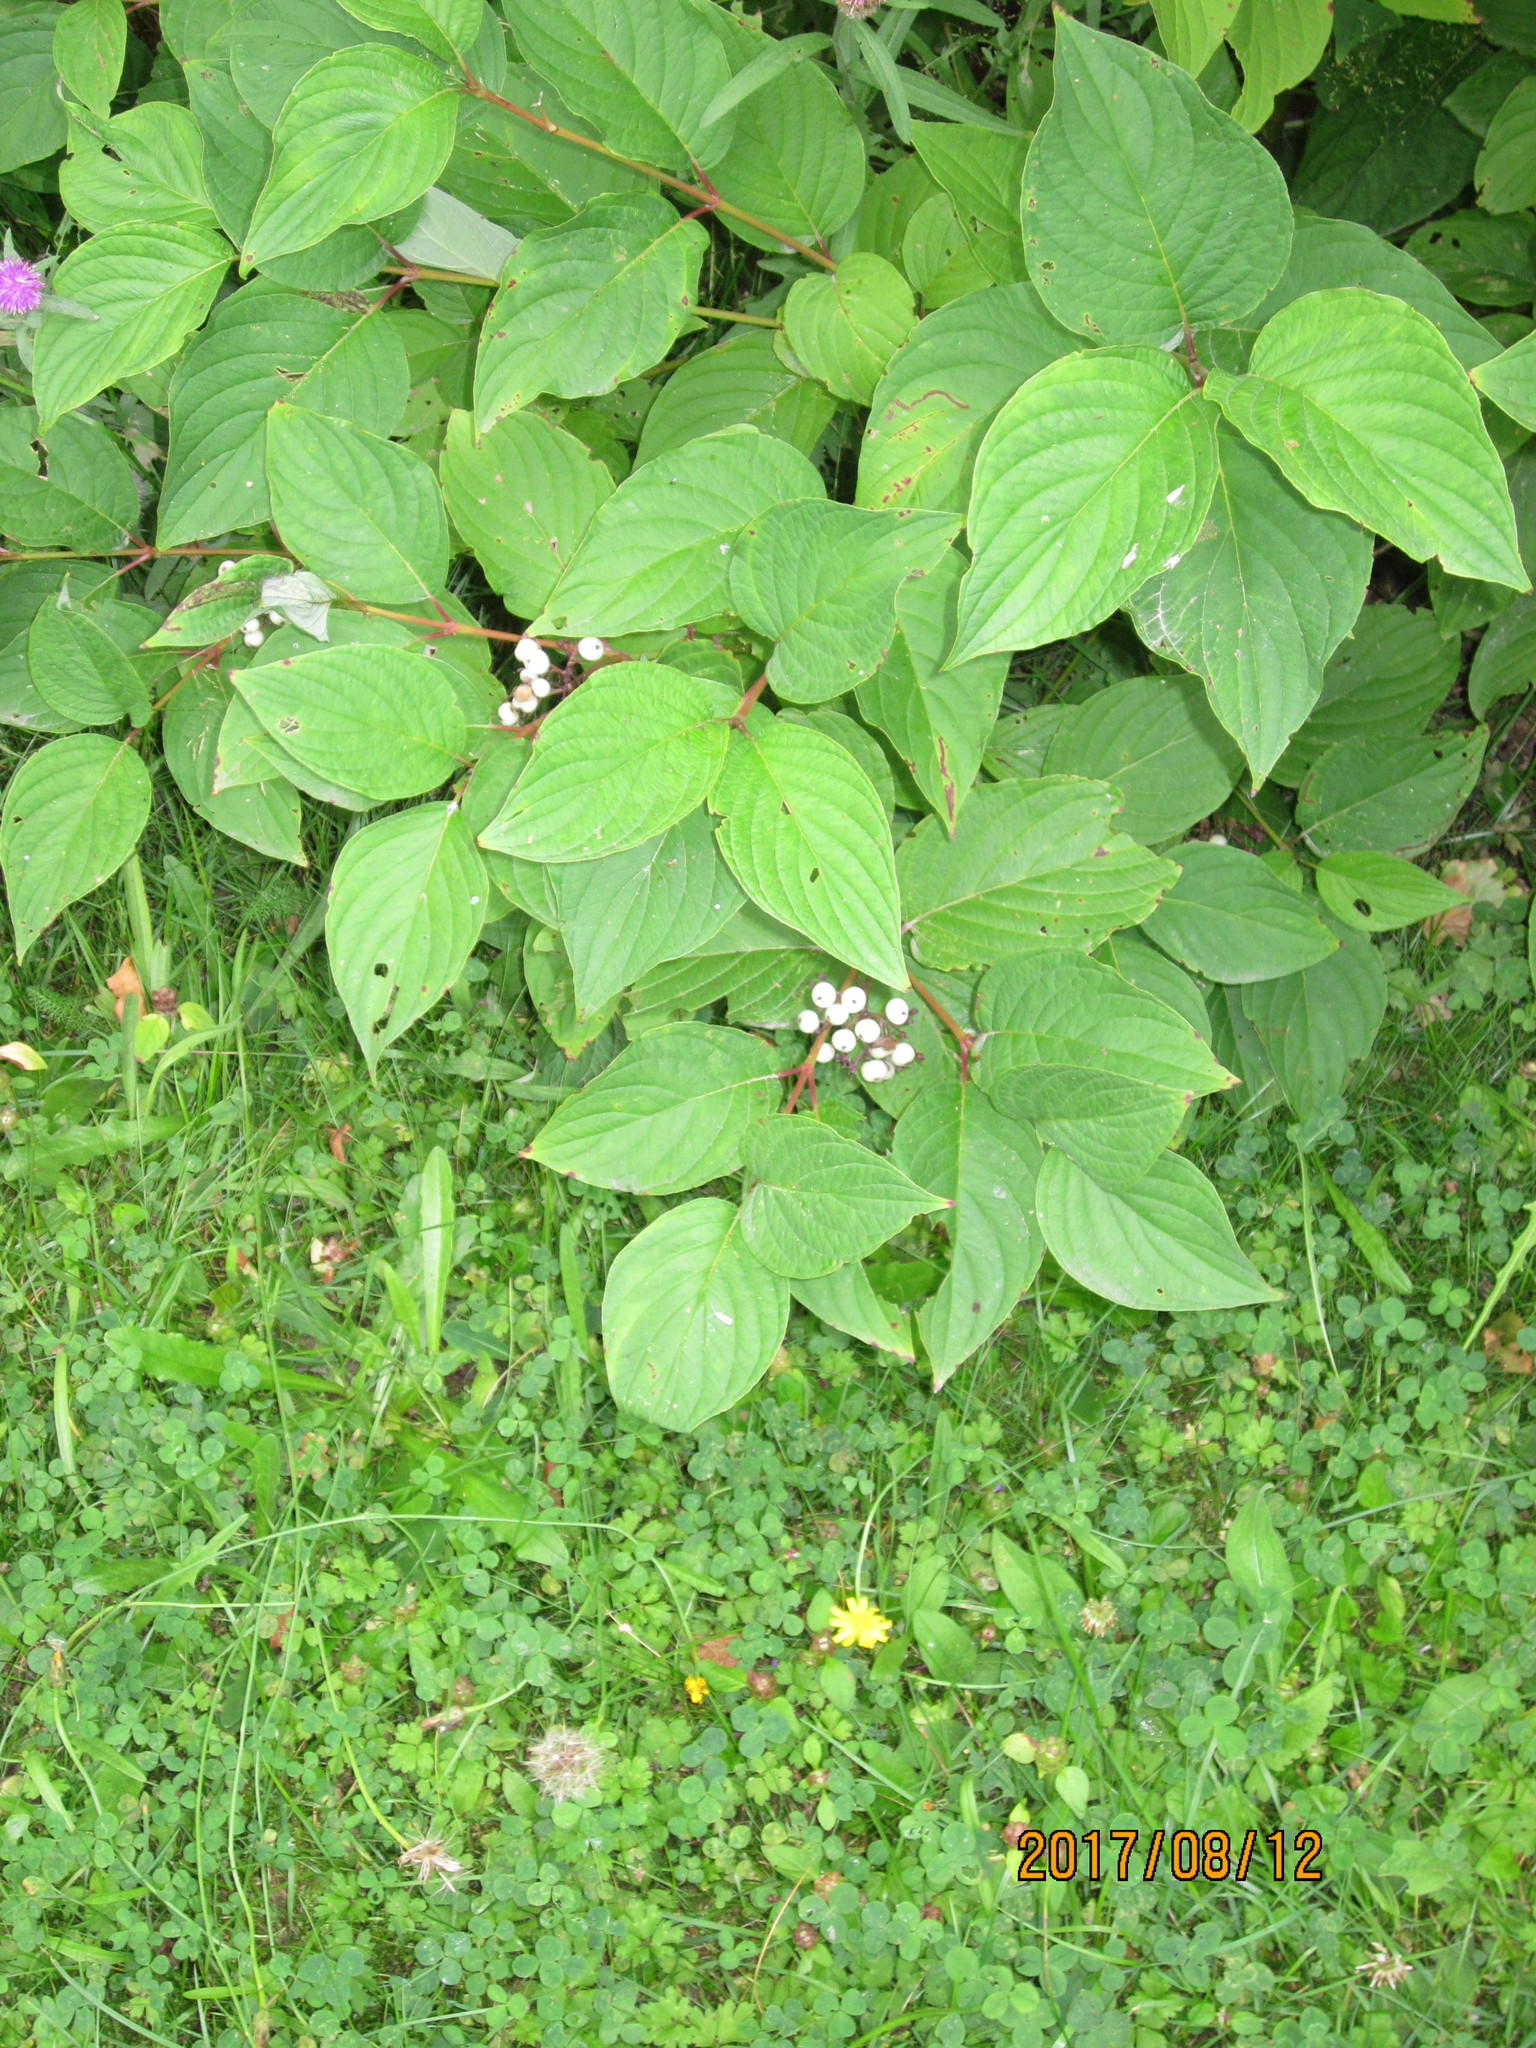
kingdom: Plantae
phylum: Tracheophyta
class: Magnoliopsida
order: Cornales
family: Cornaceae
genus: Cornus
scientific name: Cornus sericea
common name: Red-osier dogwood
